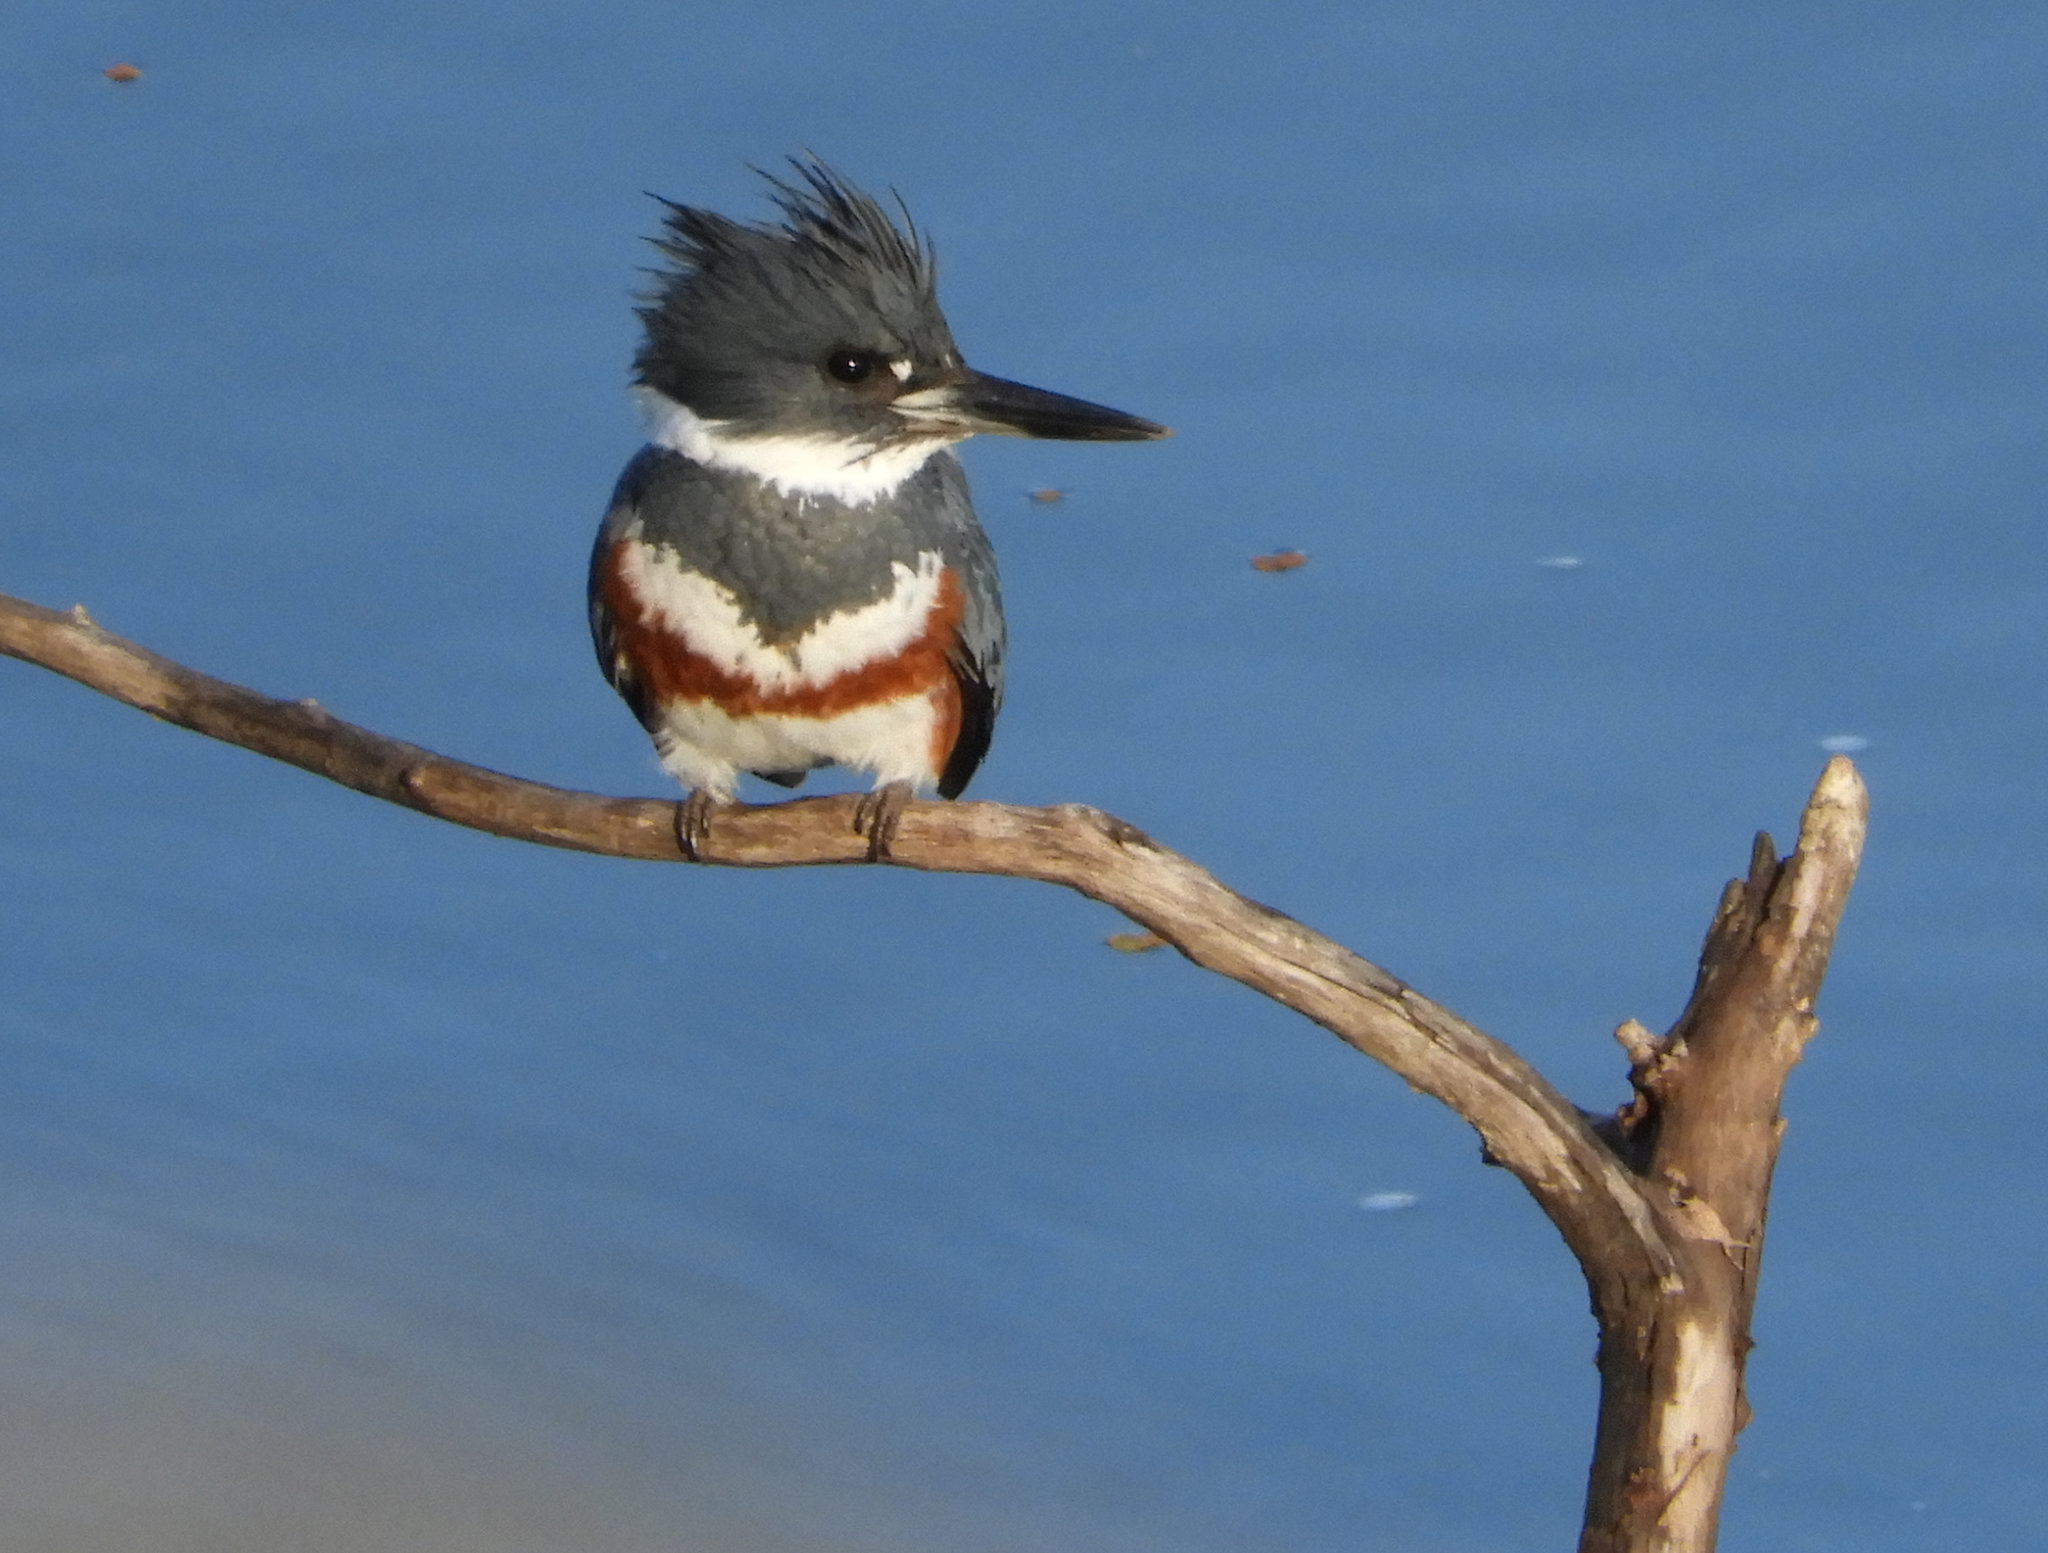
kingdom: Animalia
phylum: Chordata
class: Aves
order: Coraciiformes
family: Alcedinidae
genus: Megaceryle
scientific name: Megaceryle alcyon
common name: Belted kingfisher
